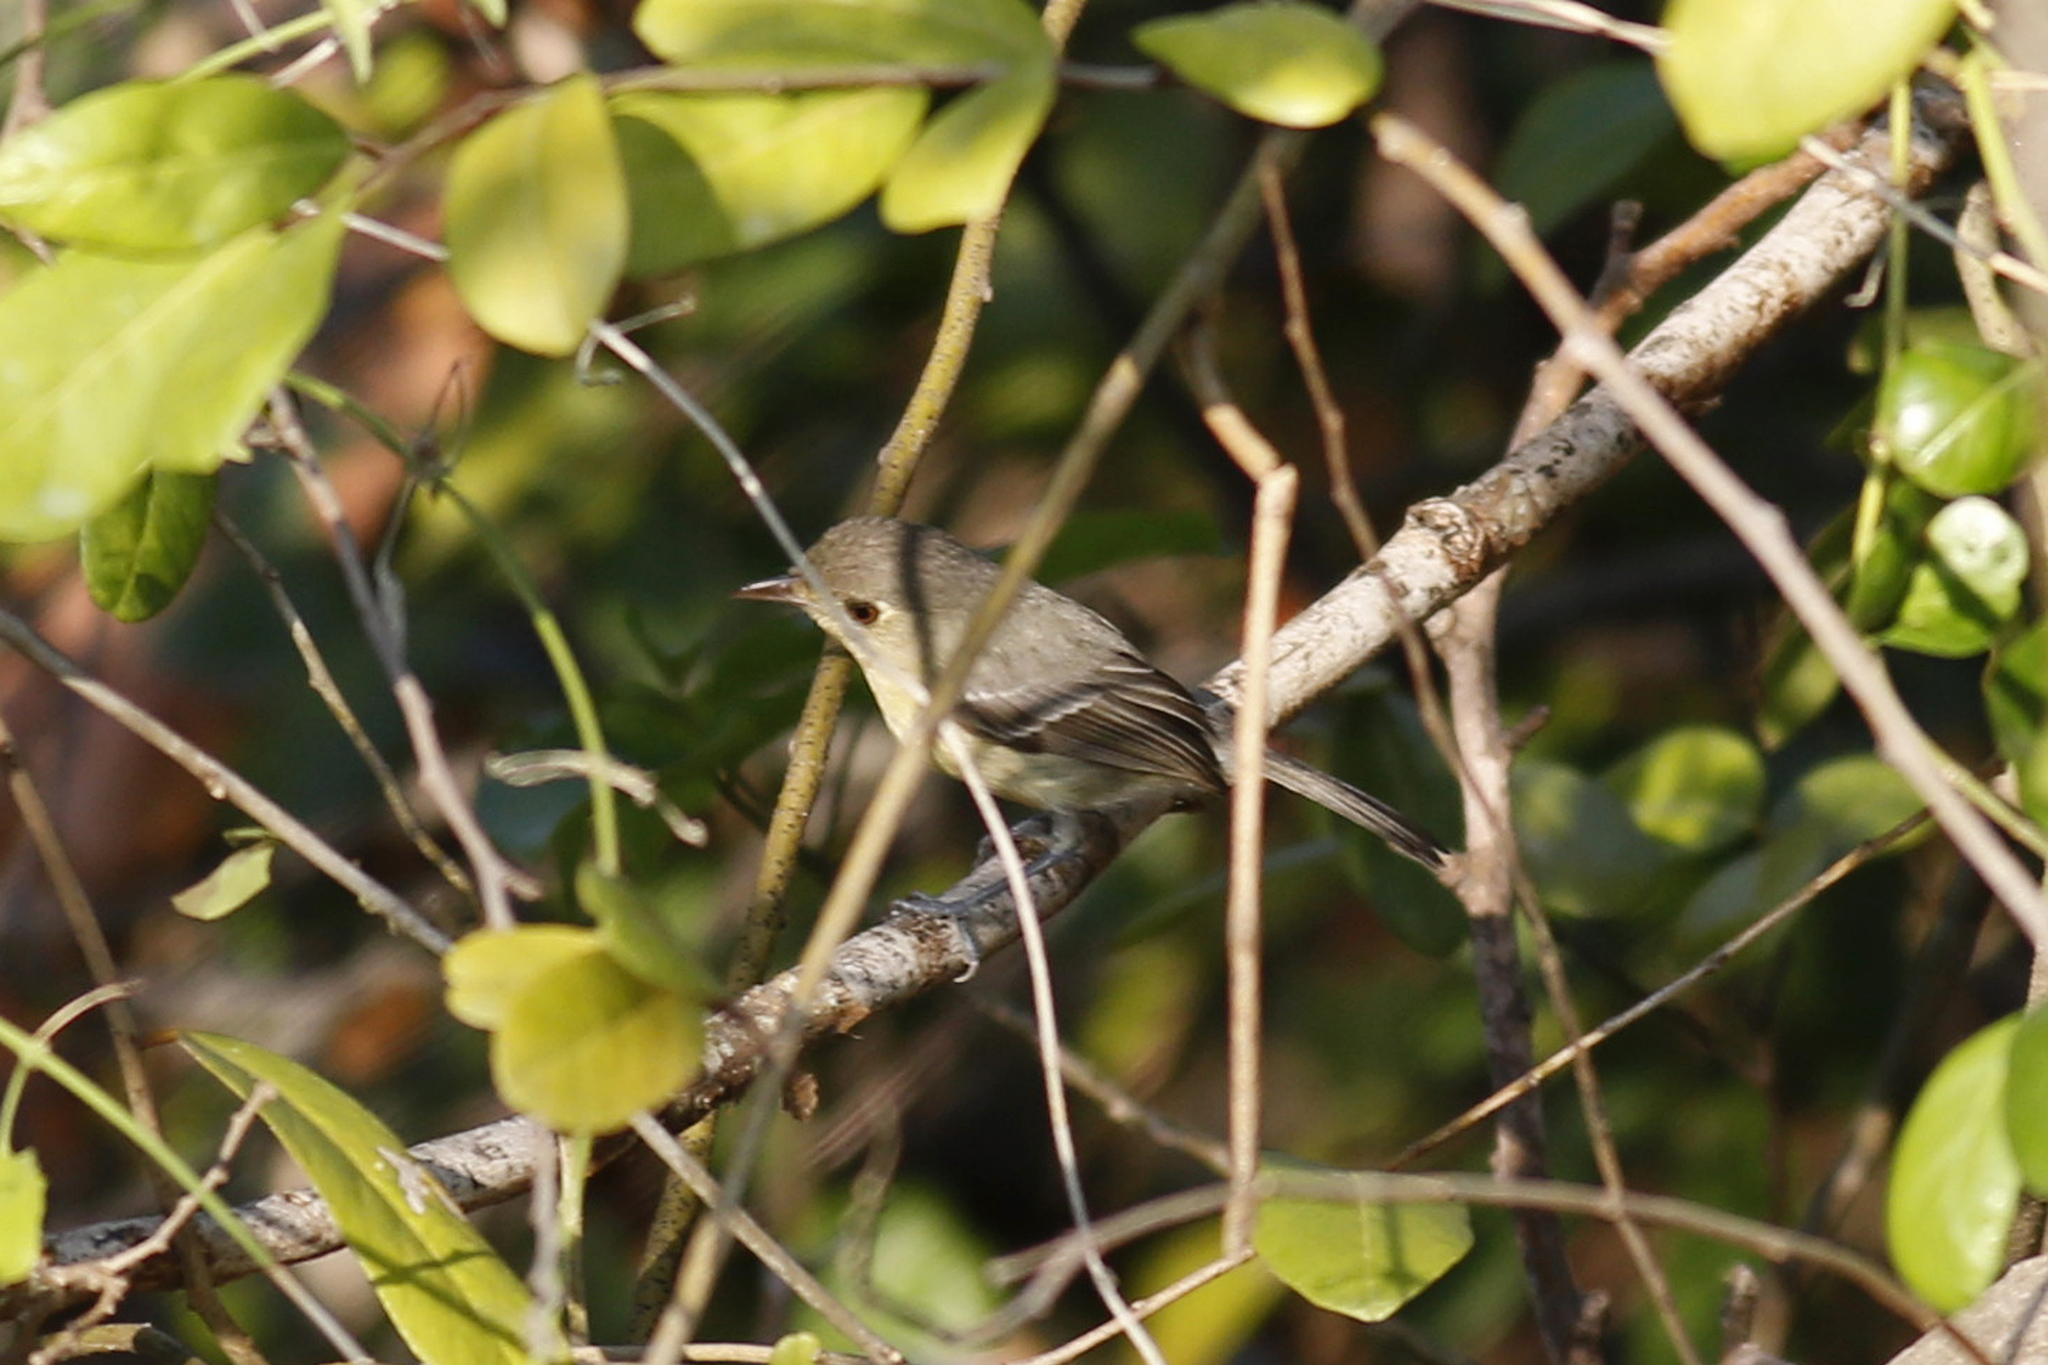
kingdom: Animalia
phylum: Chordata
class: Aves
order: Passeriformes
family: Vireonidae
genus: Vireo
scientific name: Vireo gundlachii
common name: Cuban vireo
